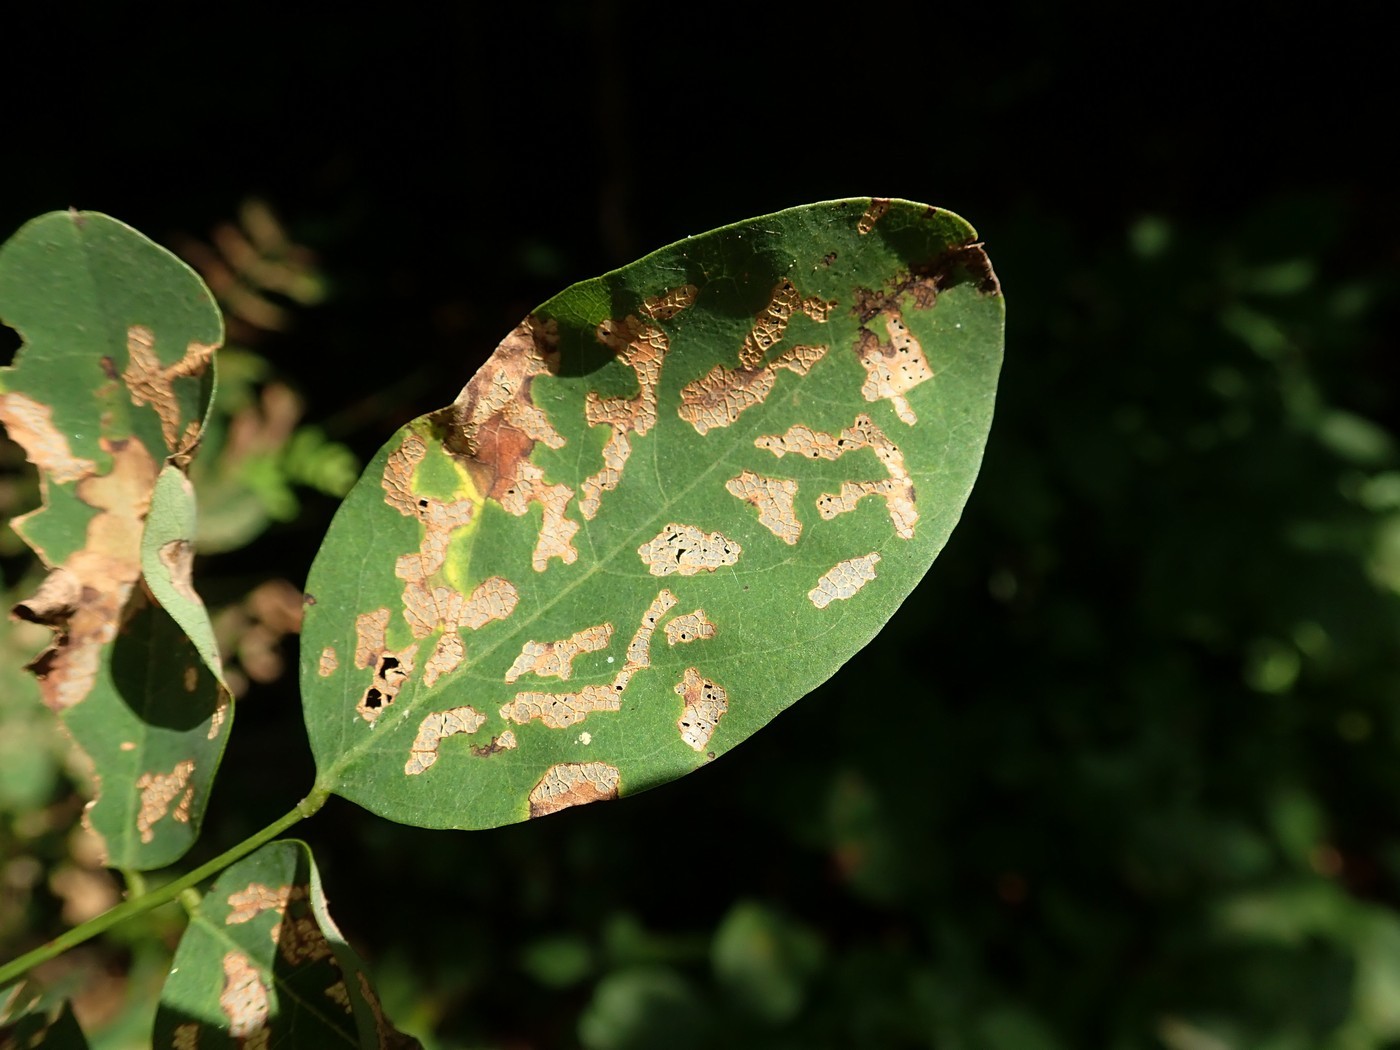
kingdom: Animalia
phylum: Arthropoda
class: Insecta
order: Coleoptera
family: Chrysomelidae
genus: Odontota
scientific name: Odontota dorsalis
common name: Locust leaf-miner beetle
